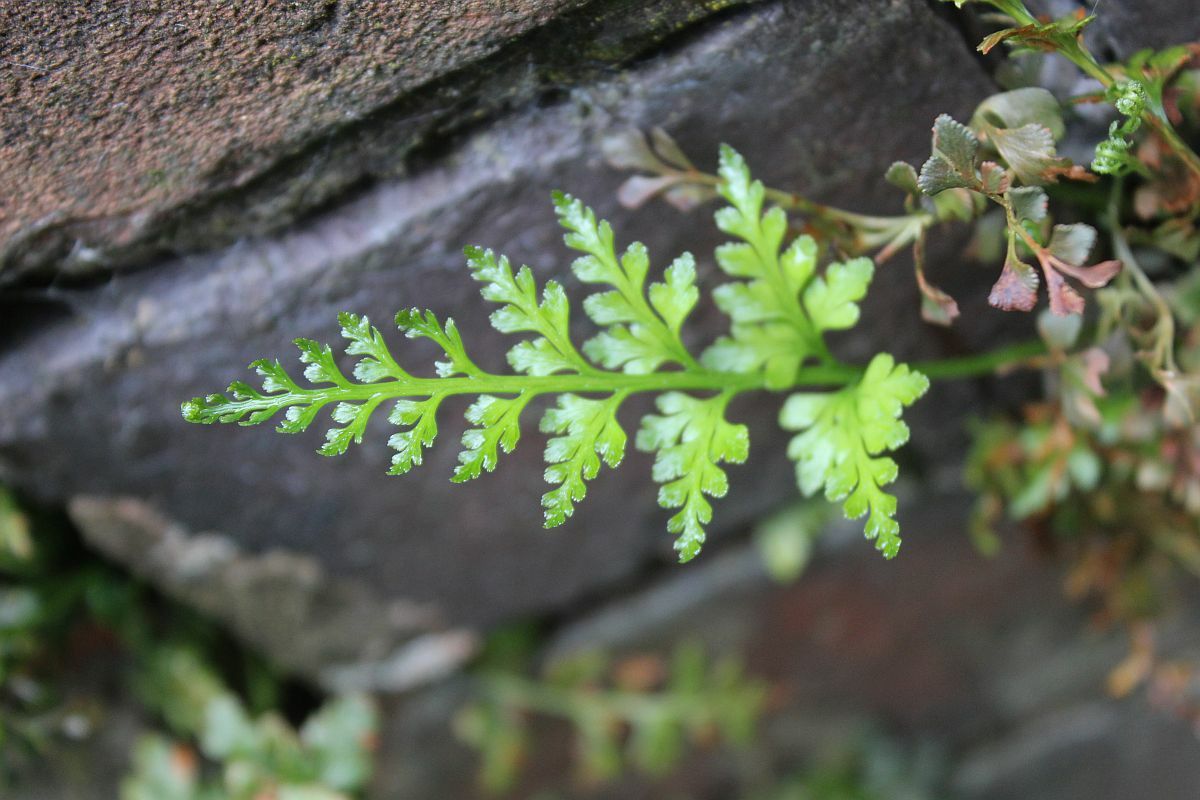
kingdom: Plantae
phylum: Tracheophyta
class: Polypodiopsida
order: Polypodiales
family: Aspleniaceae
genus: Asplenium
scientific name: Asplenium adiantum-nigrum
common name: Black spleenwort
